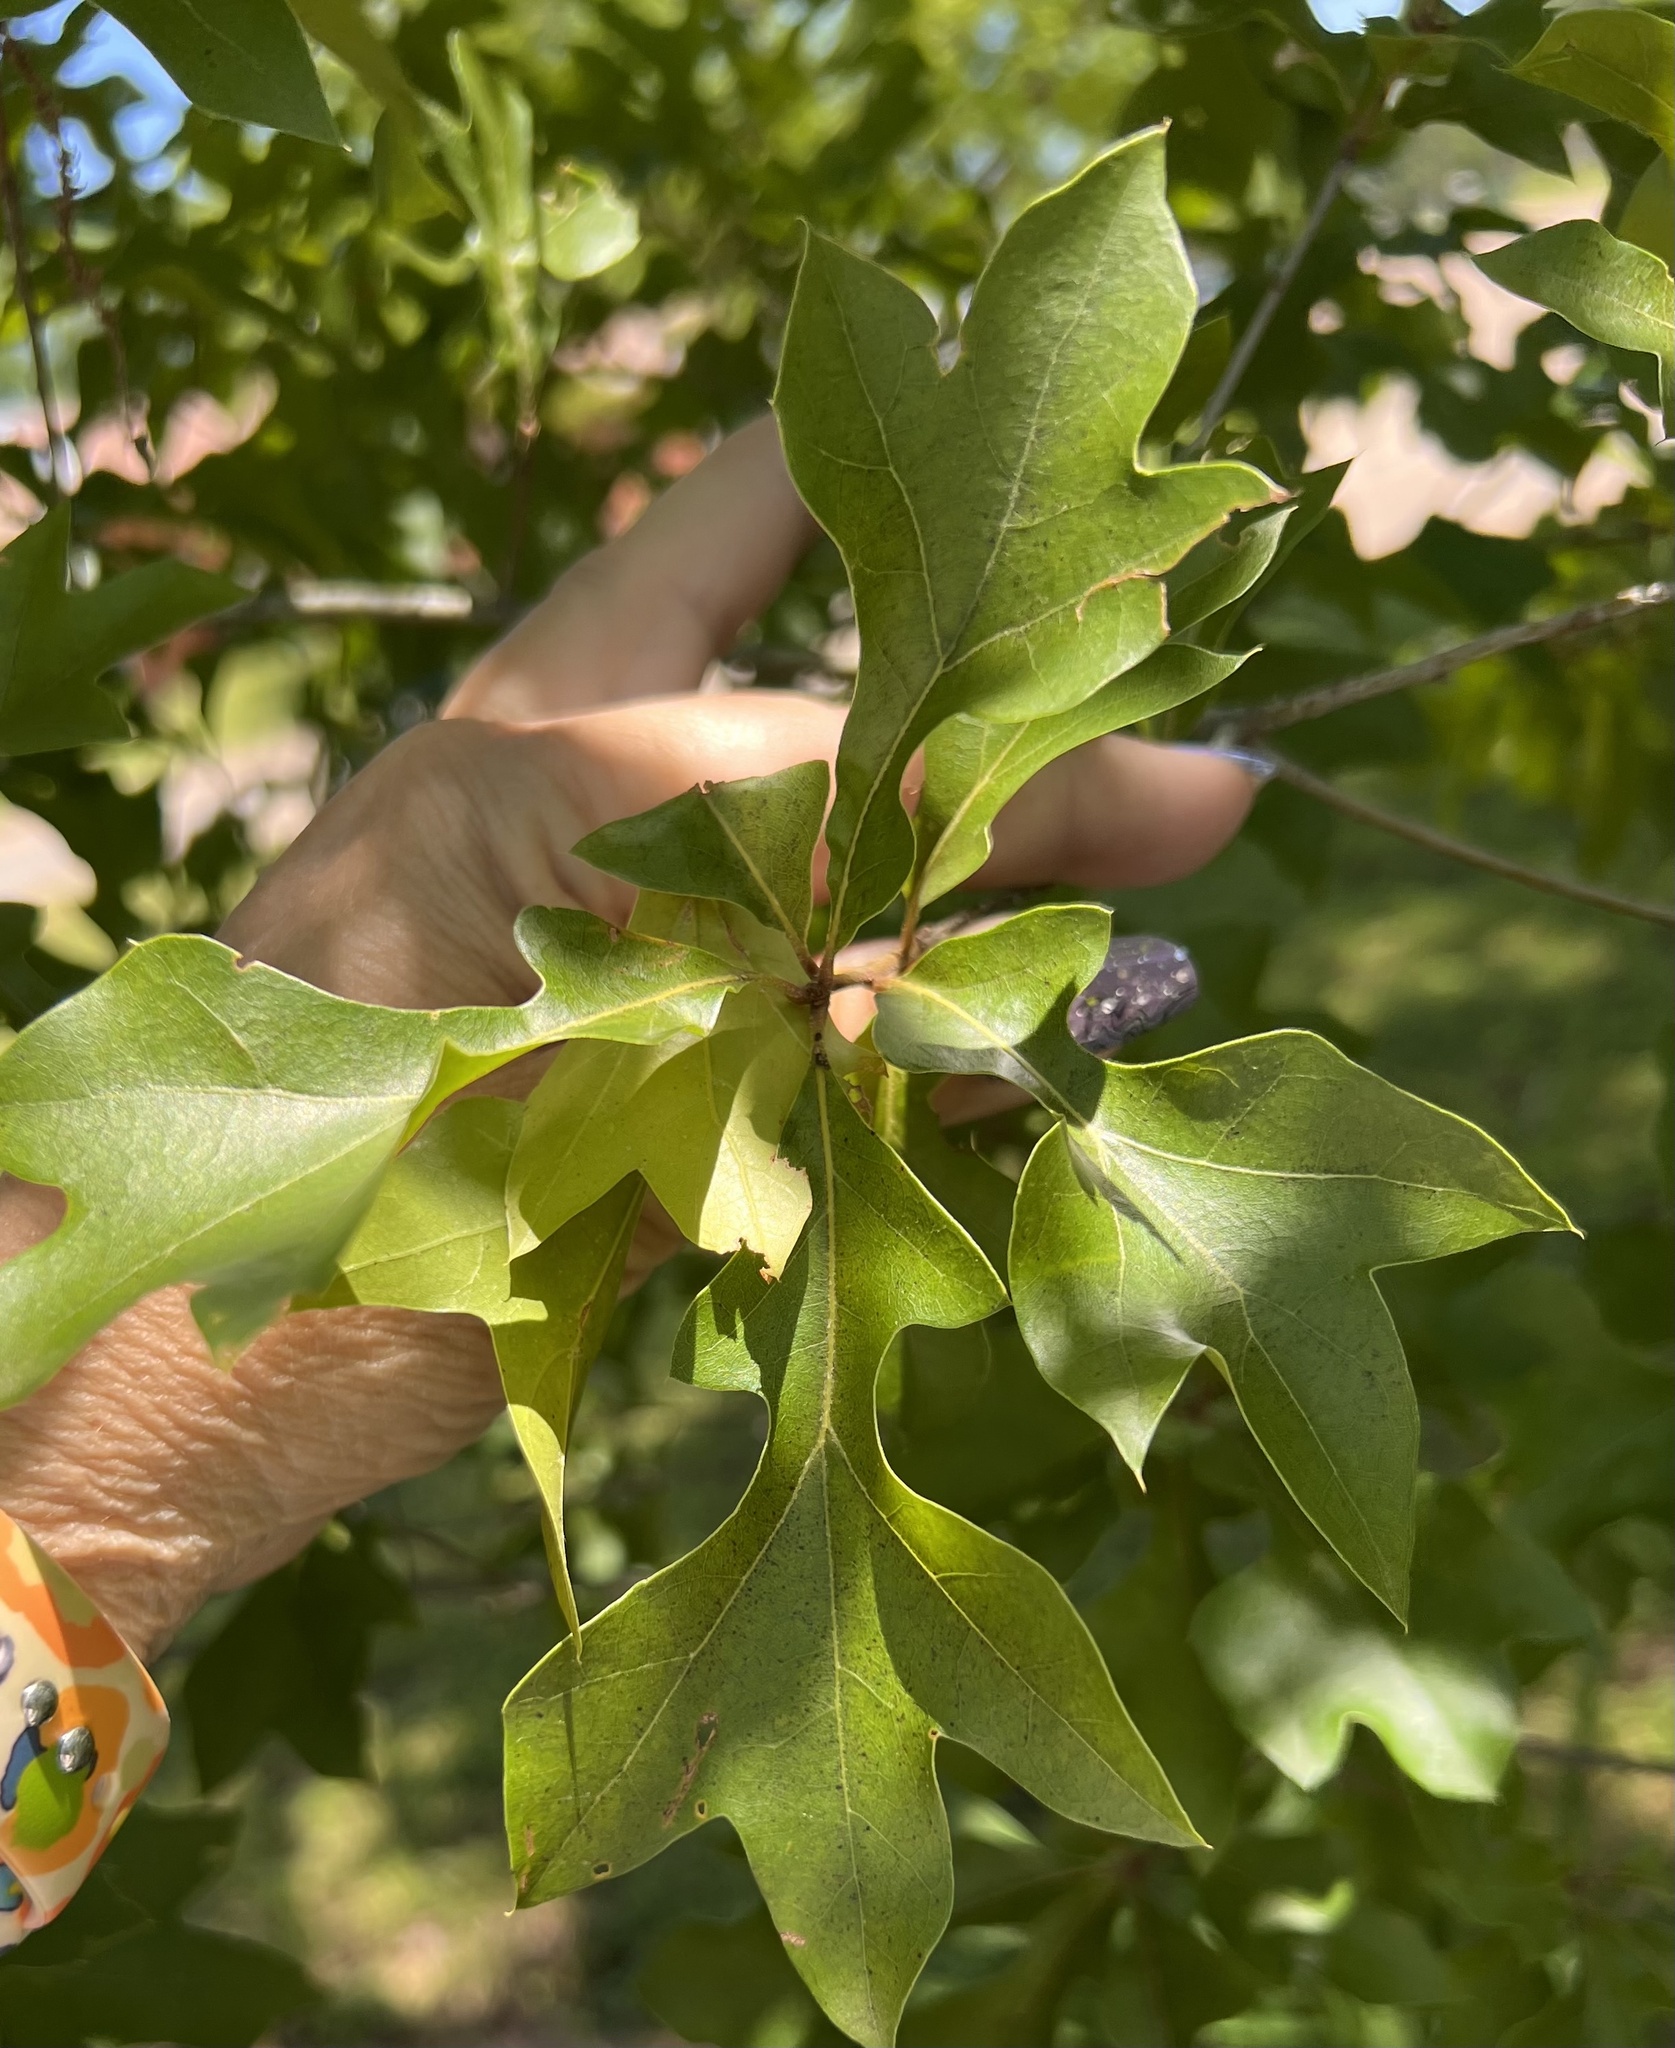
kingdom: Plantae
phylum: Tracheophyta
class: Magnoliopsida
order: Fagales
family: Fagaceae
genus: Quercus
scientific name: Quercus nigra
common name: Water oak
